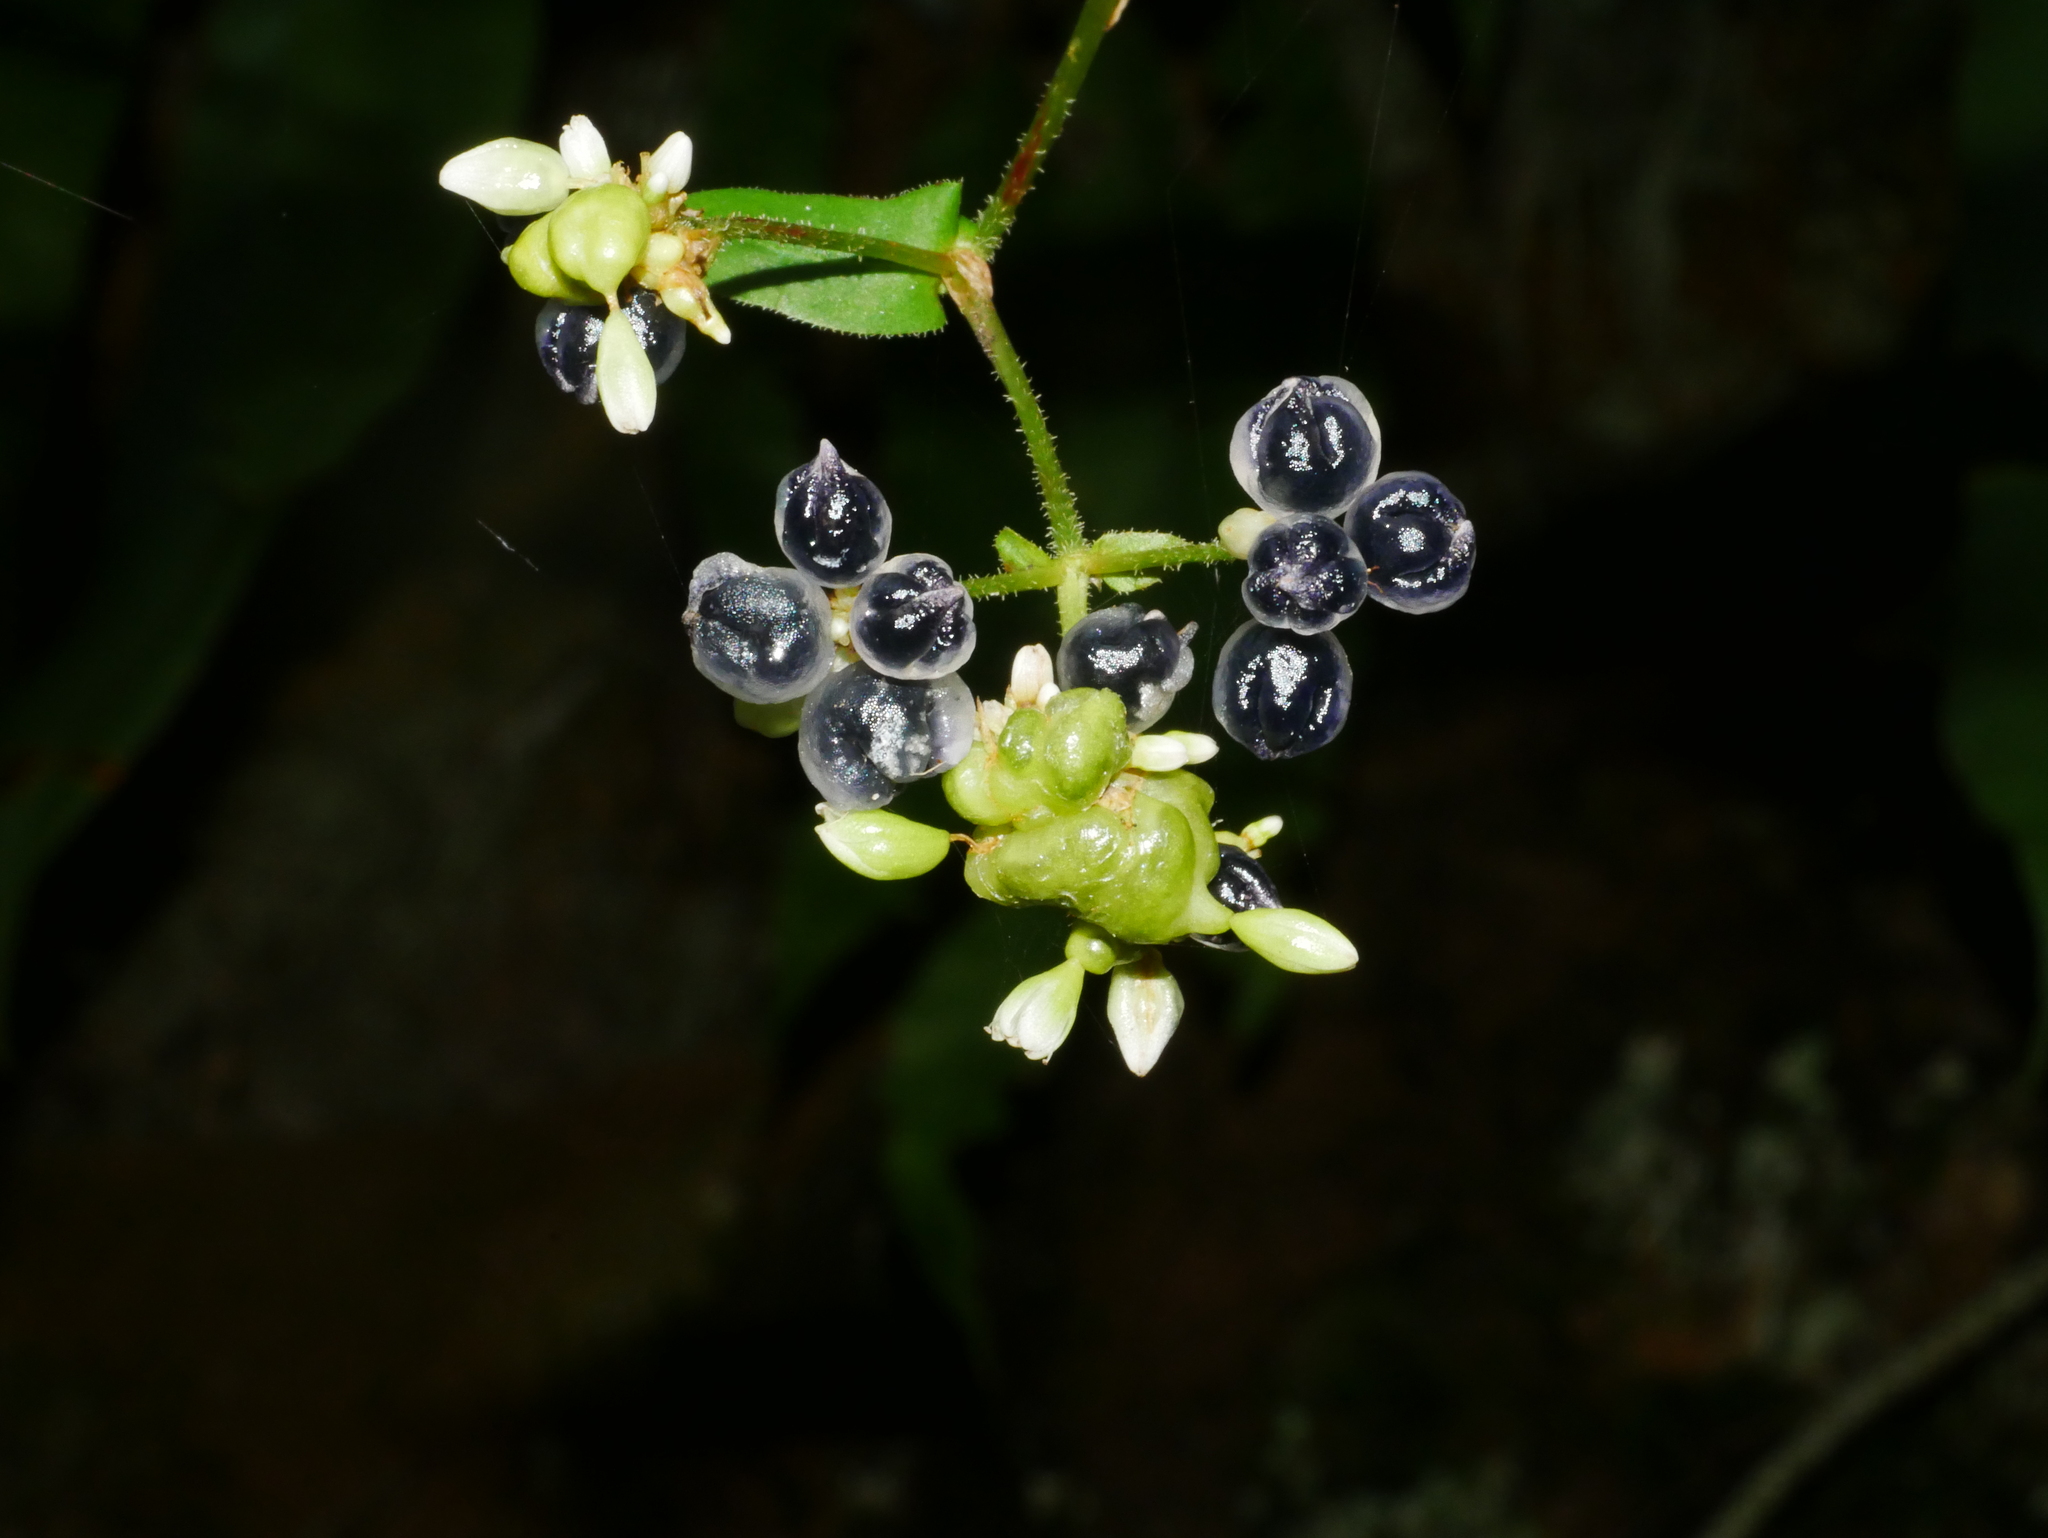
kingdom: Plantae
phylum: Tracheophyta
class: Magnoliopsida
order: Caryophyllales
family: Polygonaceae
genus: Persicaria
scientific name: Persicaria chinensis
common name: Chinese knotweed
